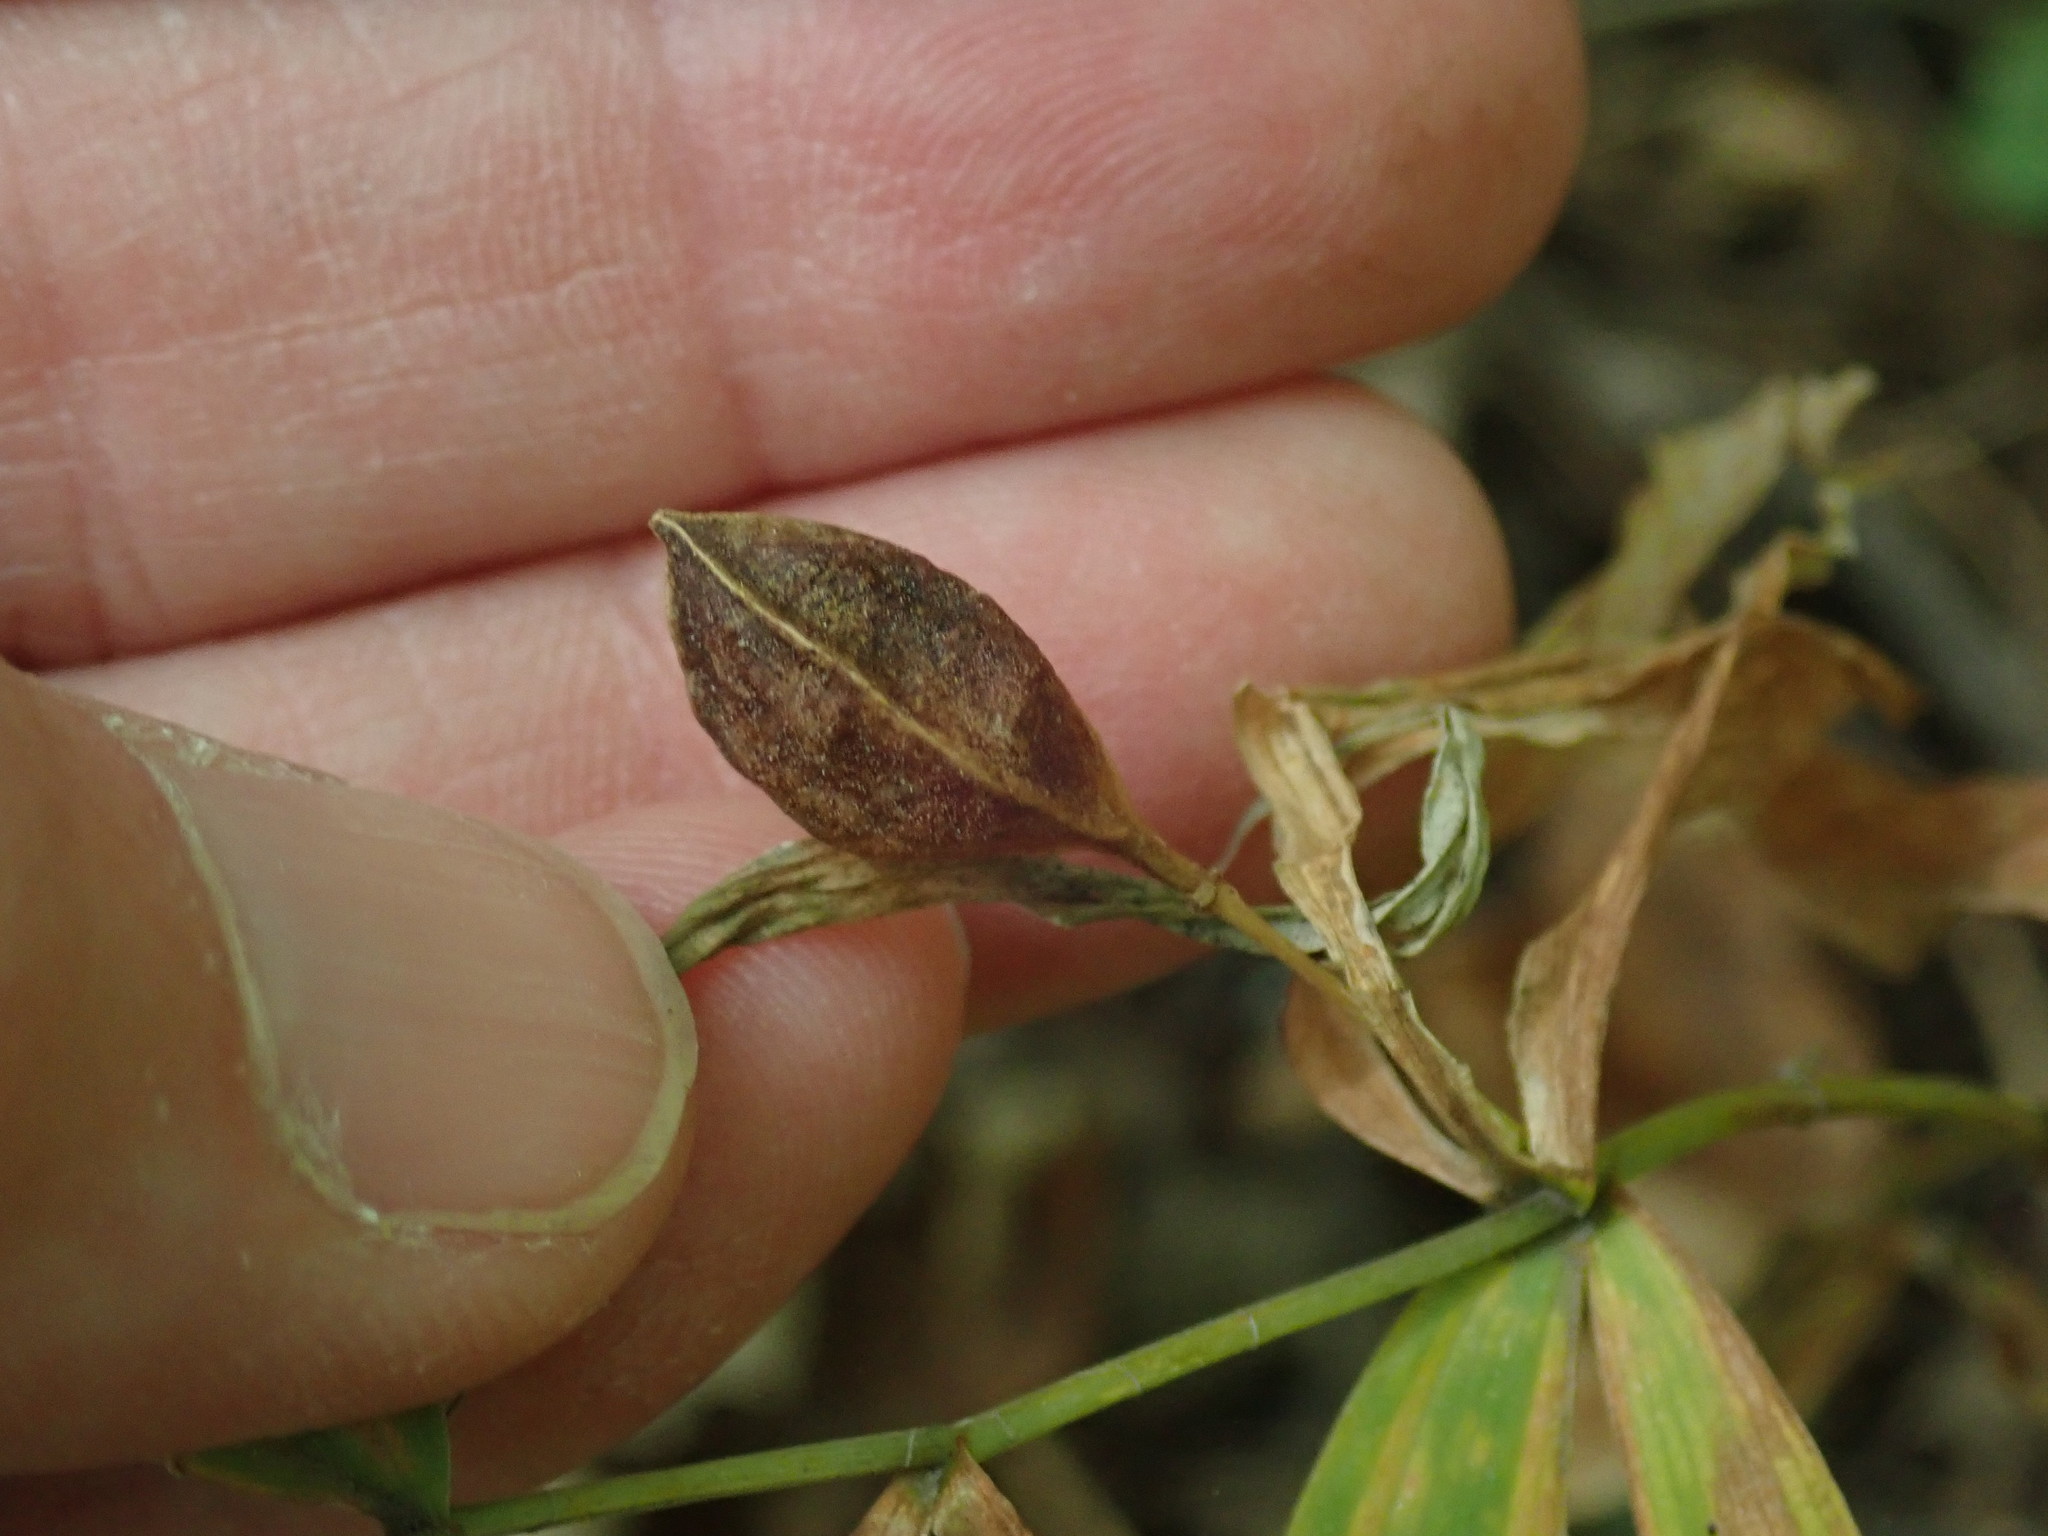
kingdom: Plantae
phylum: Tracheophyta
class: Liliopsida
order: Liliales
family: Colchicaceae
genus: Uvularia
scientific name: Uvularia sessilifolia
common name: Straw-lily
